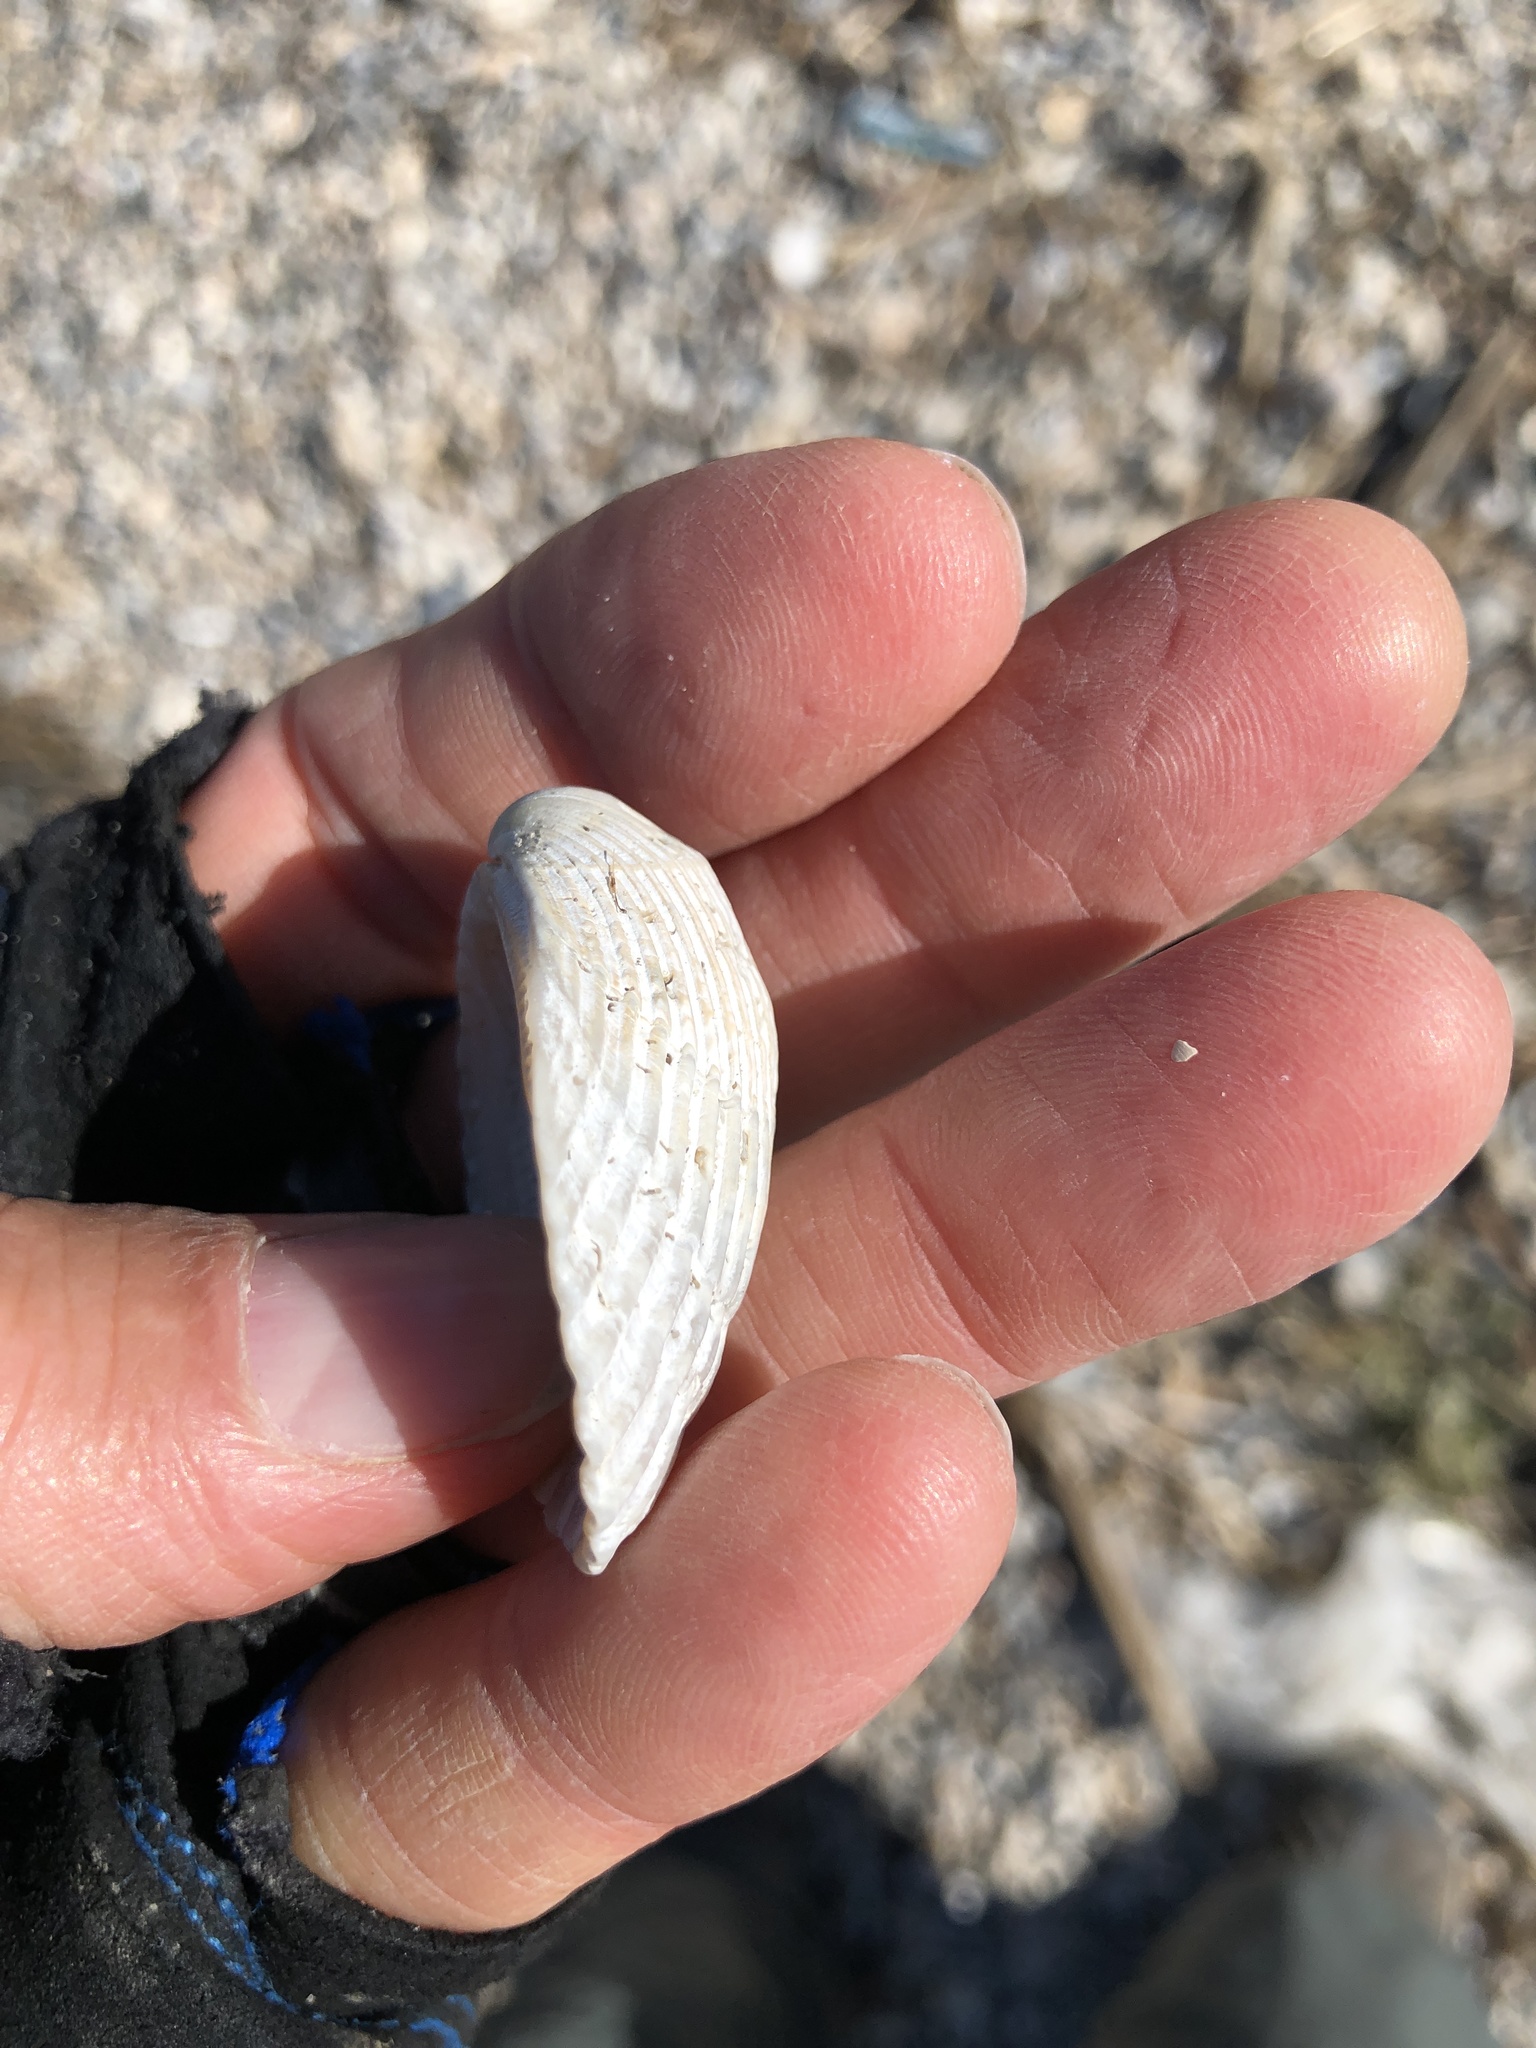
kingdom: Animalia
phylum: Mollusca
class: Bivalvia
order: Arcida
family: Arcidae
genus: Lunarca
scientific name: Lunarca ovalis
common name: Blood ark
